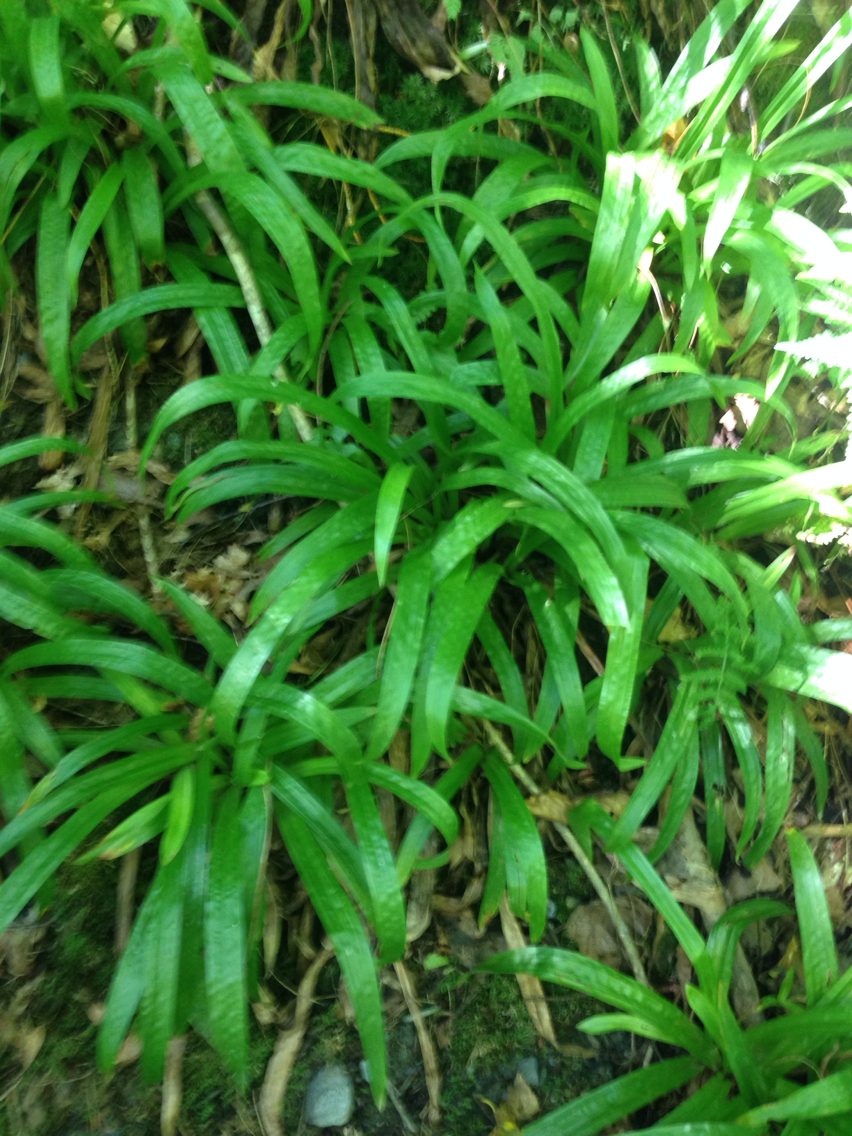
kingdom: Plantae
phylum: Tracheophyta
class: Liliopsida
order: Poales
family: Cyperaceae
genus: Carex
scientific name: Carex plantaginea
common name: Plantain-leaved sedge
